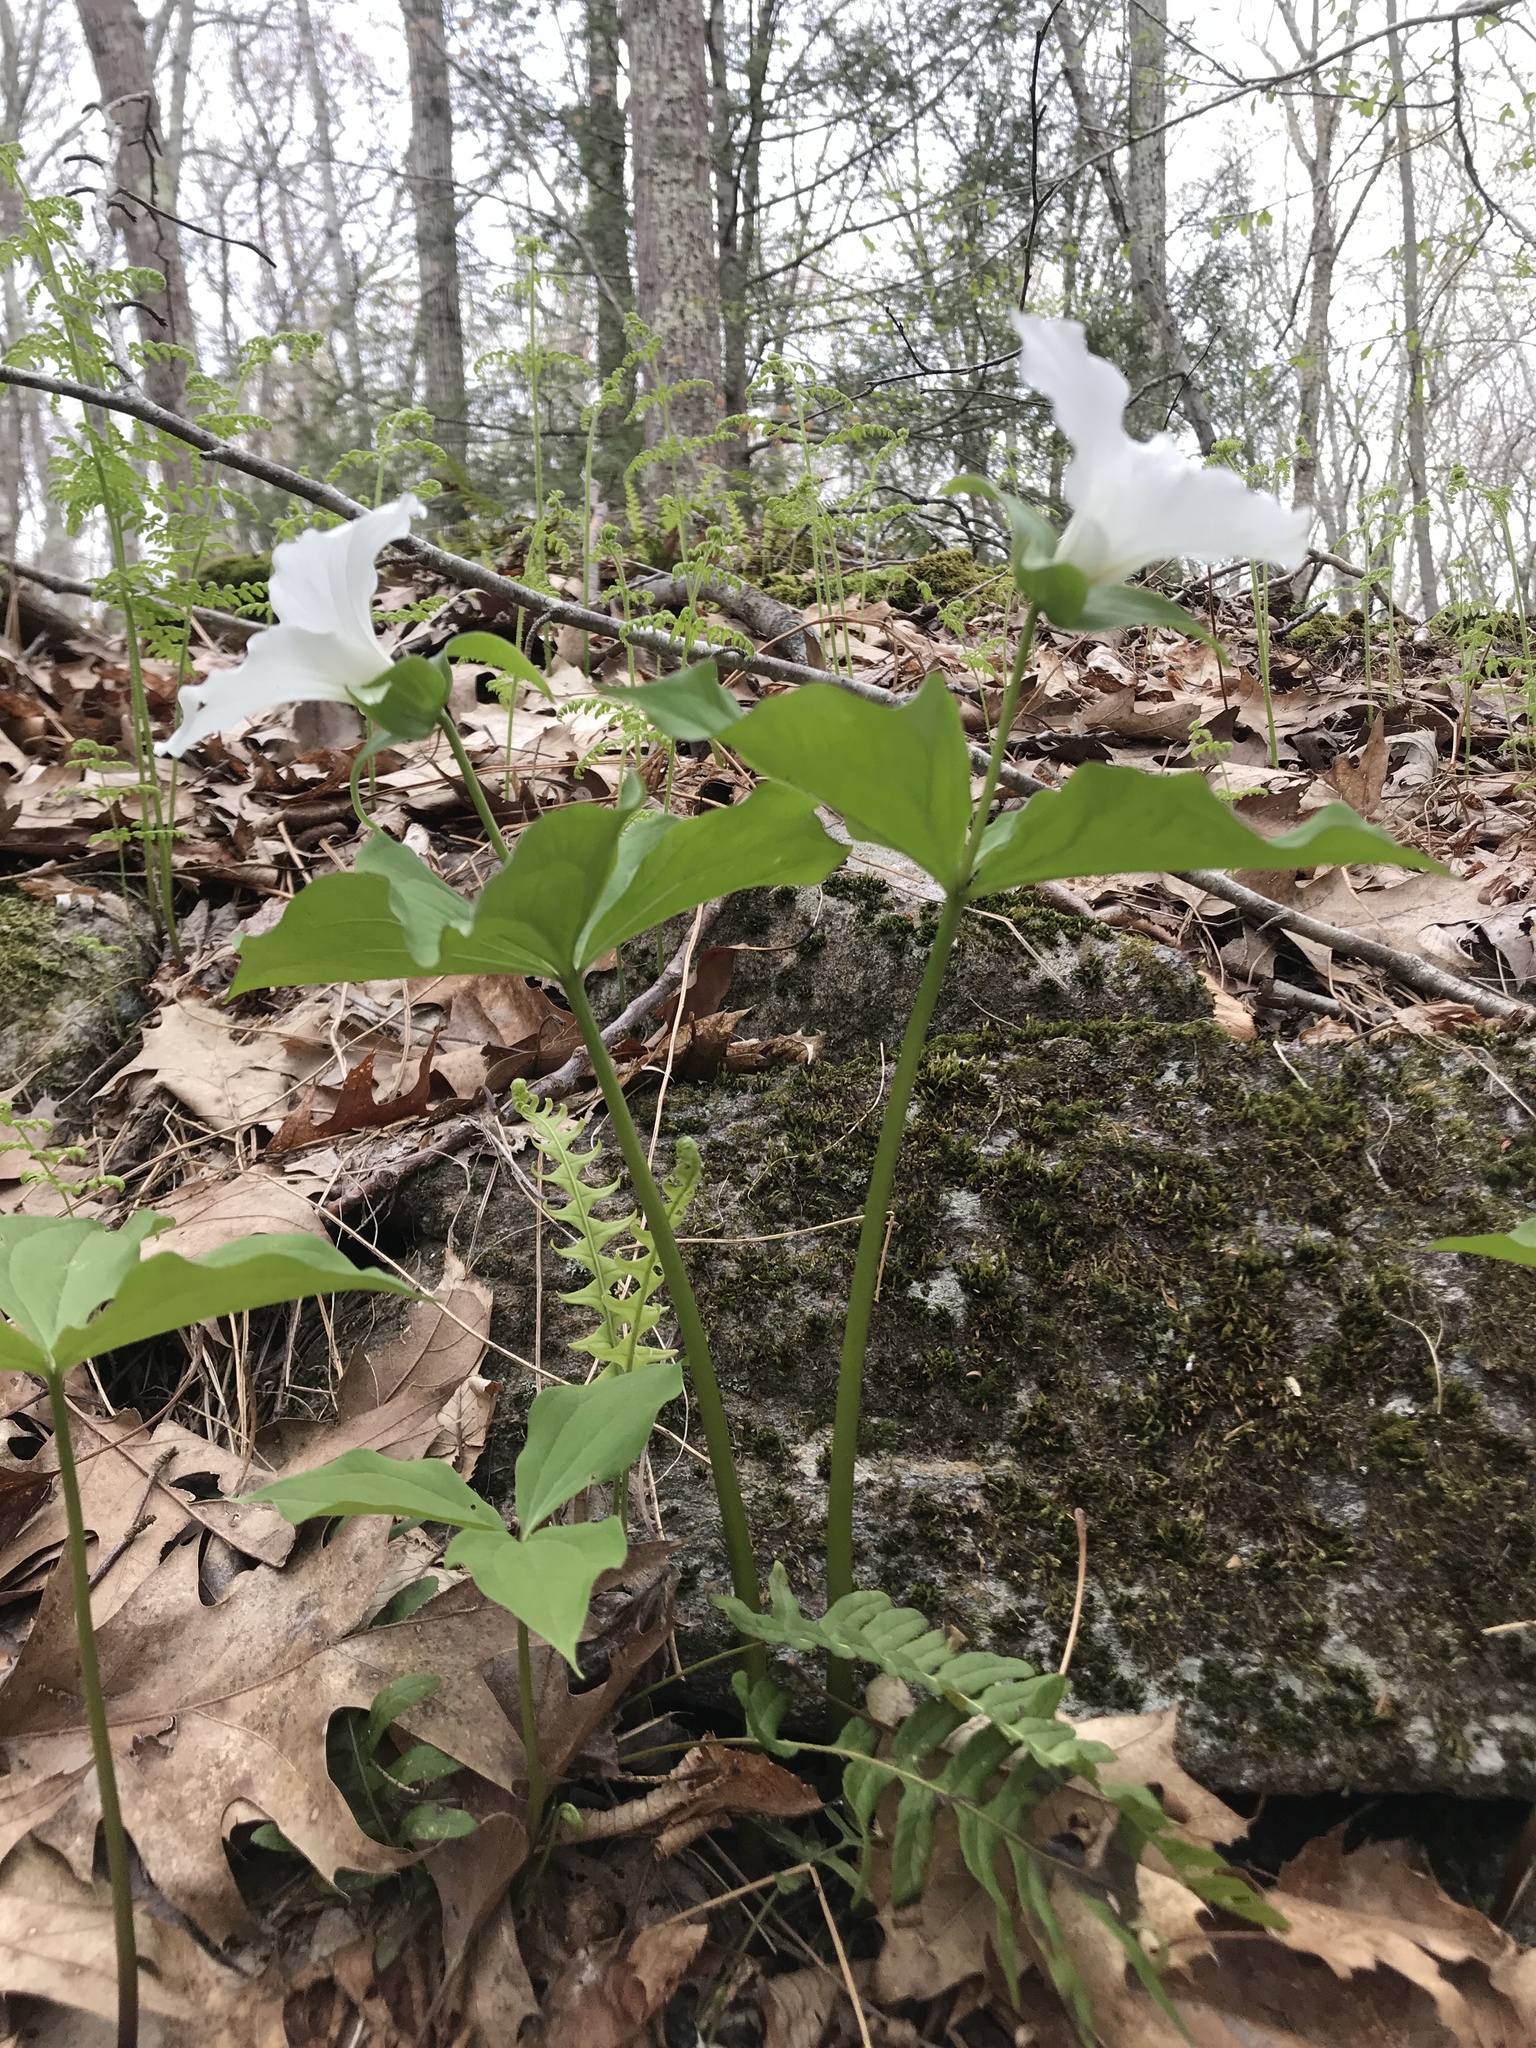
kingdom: Plantae
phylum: Tracheophyta
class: Liliopsida
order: Liliales
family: Melanthiaceae
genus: Trillium
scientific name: Trillium grandiflorum
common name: Great white trillium
